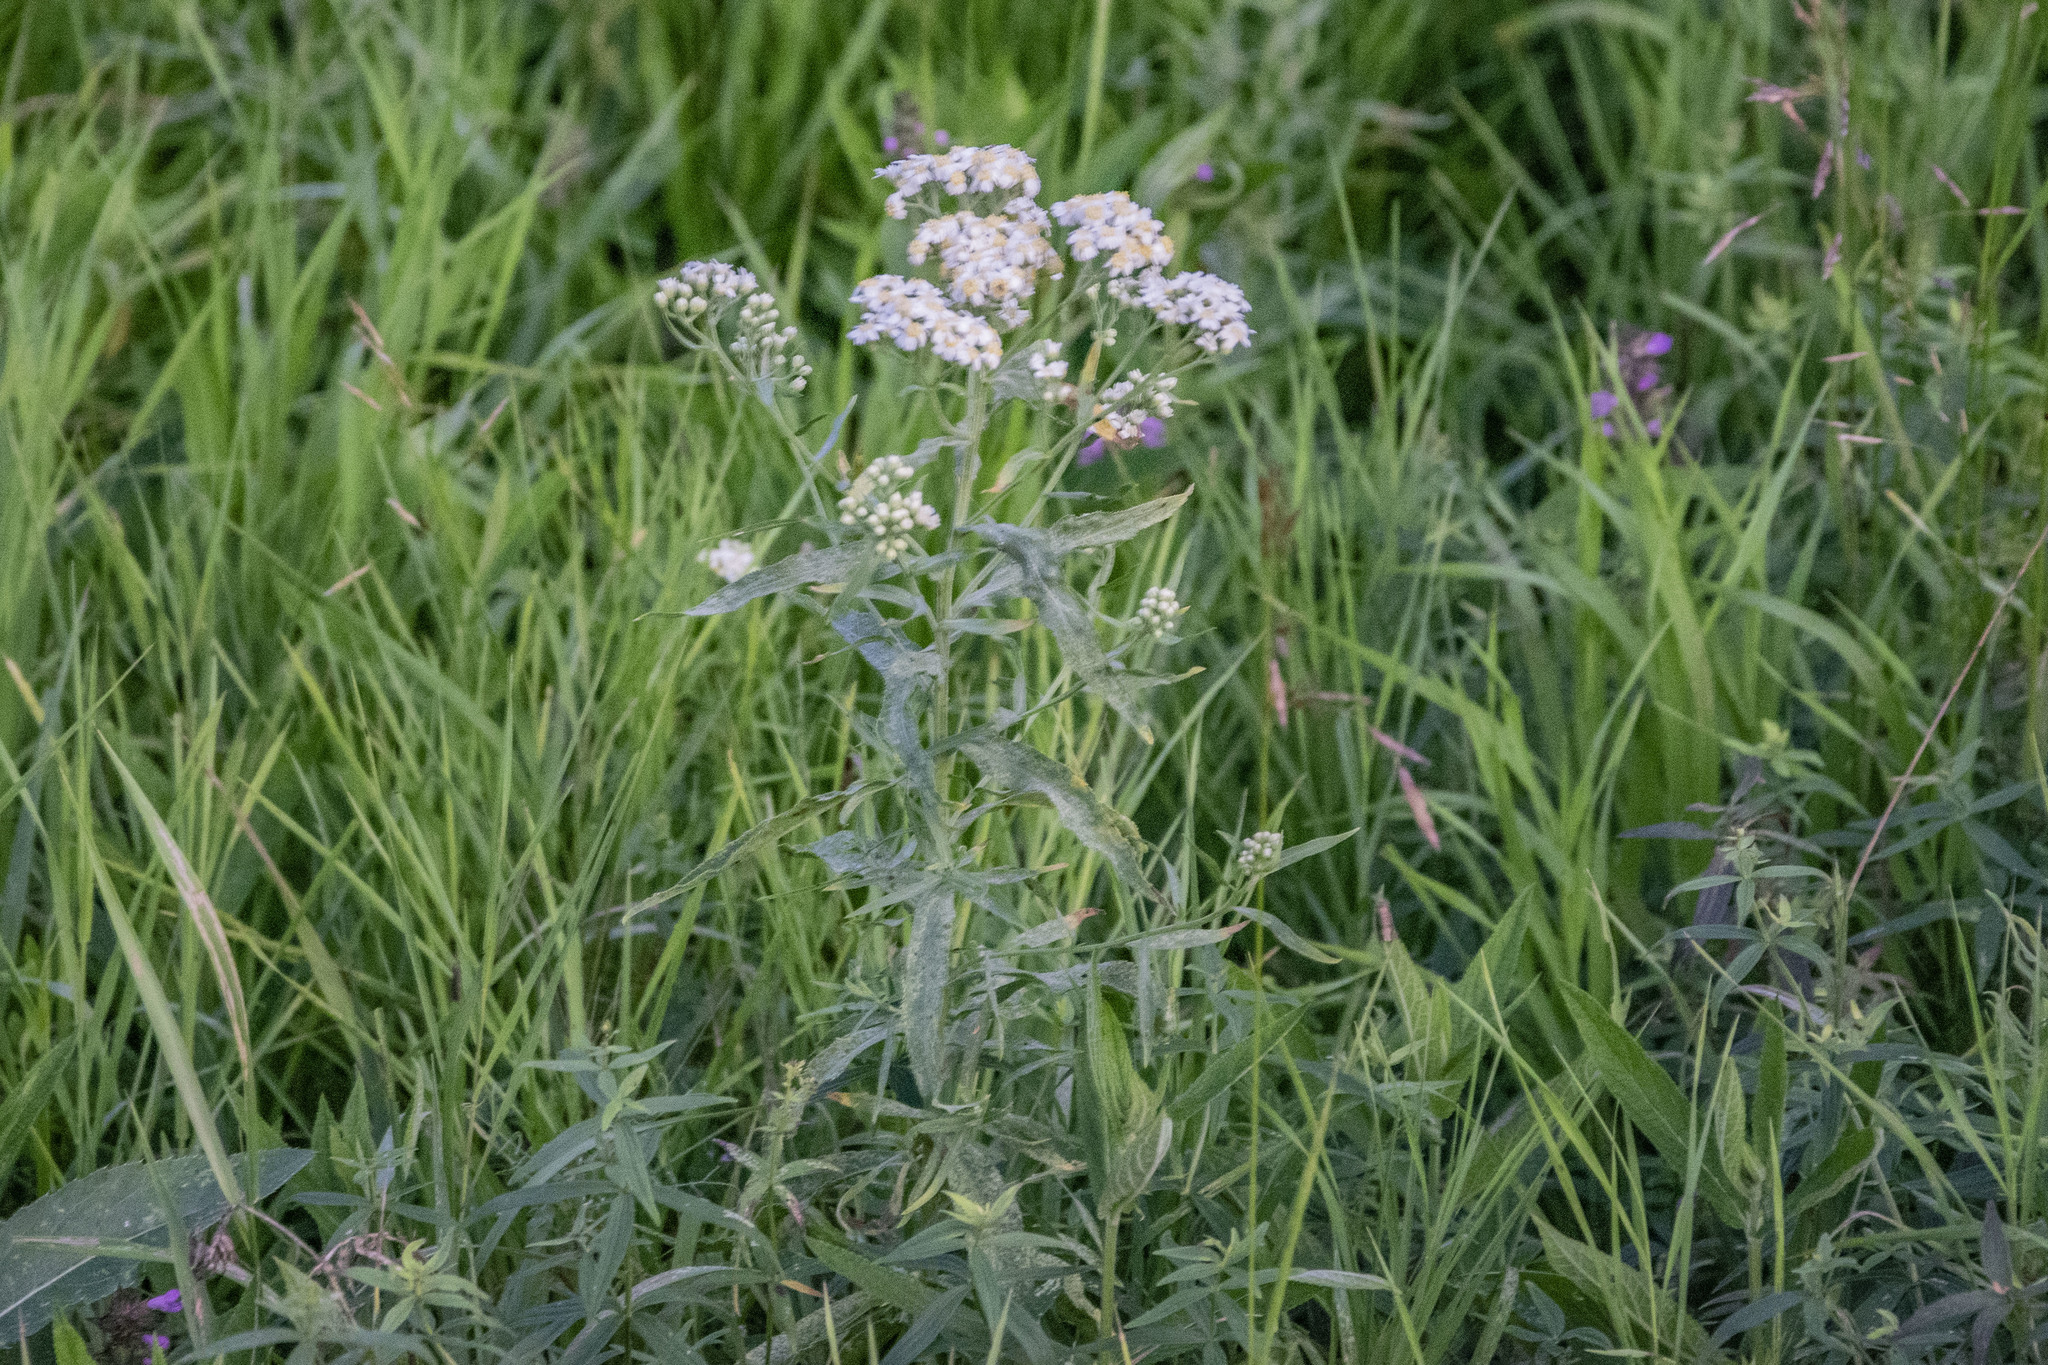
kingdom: Plantae
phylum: Tracheophyta
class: Magnoliopsida
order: Asterales
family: Asteraceae
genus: Achillea
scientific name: Achillea salicifolia
